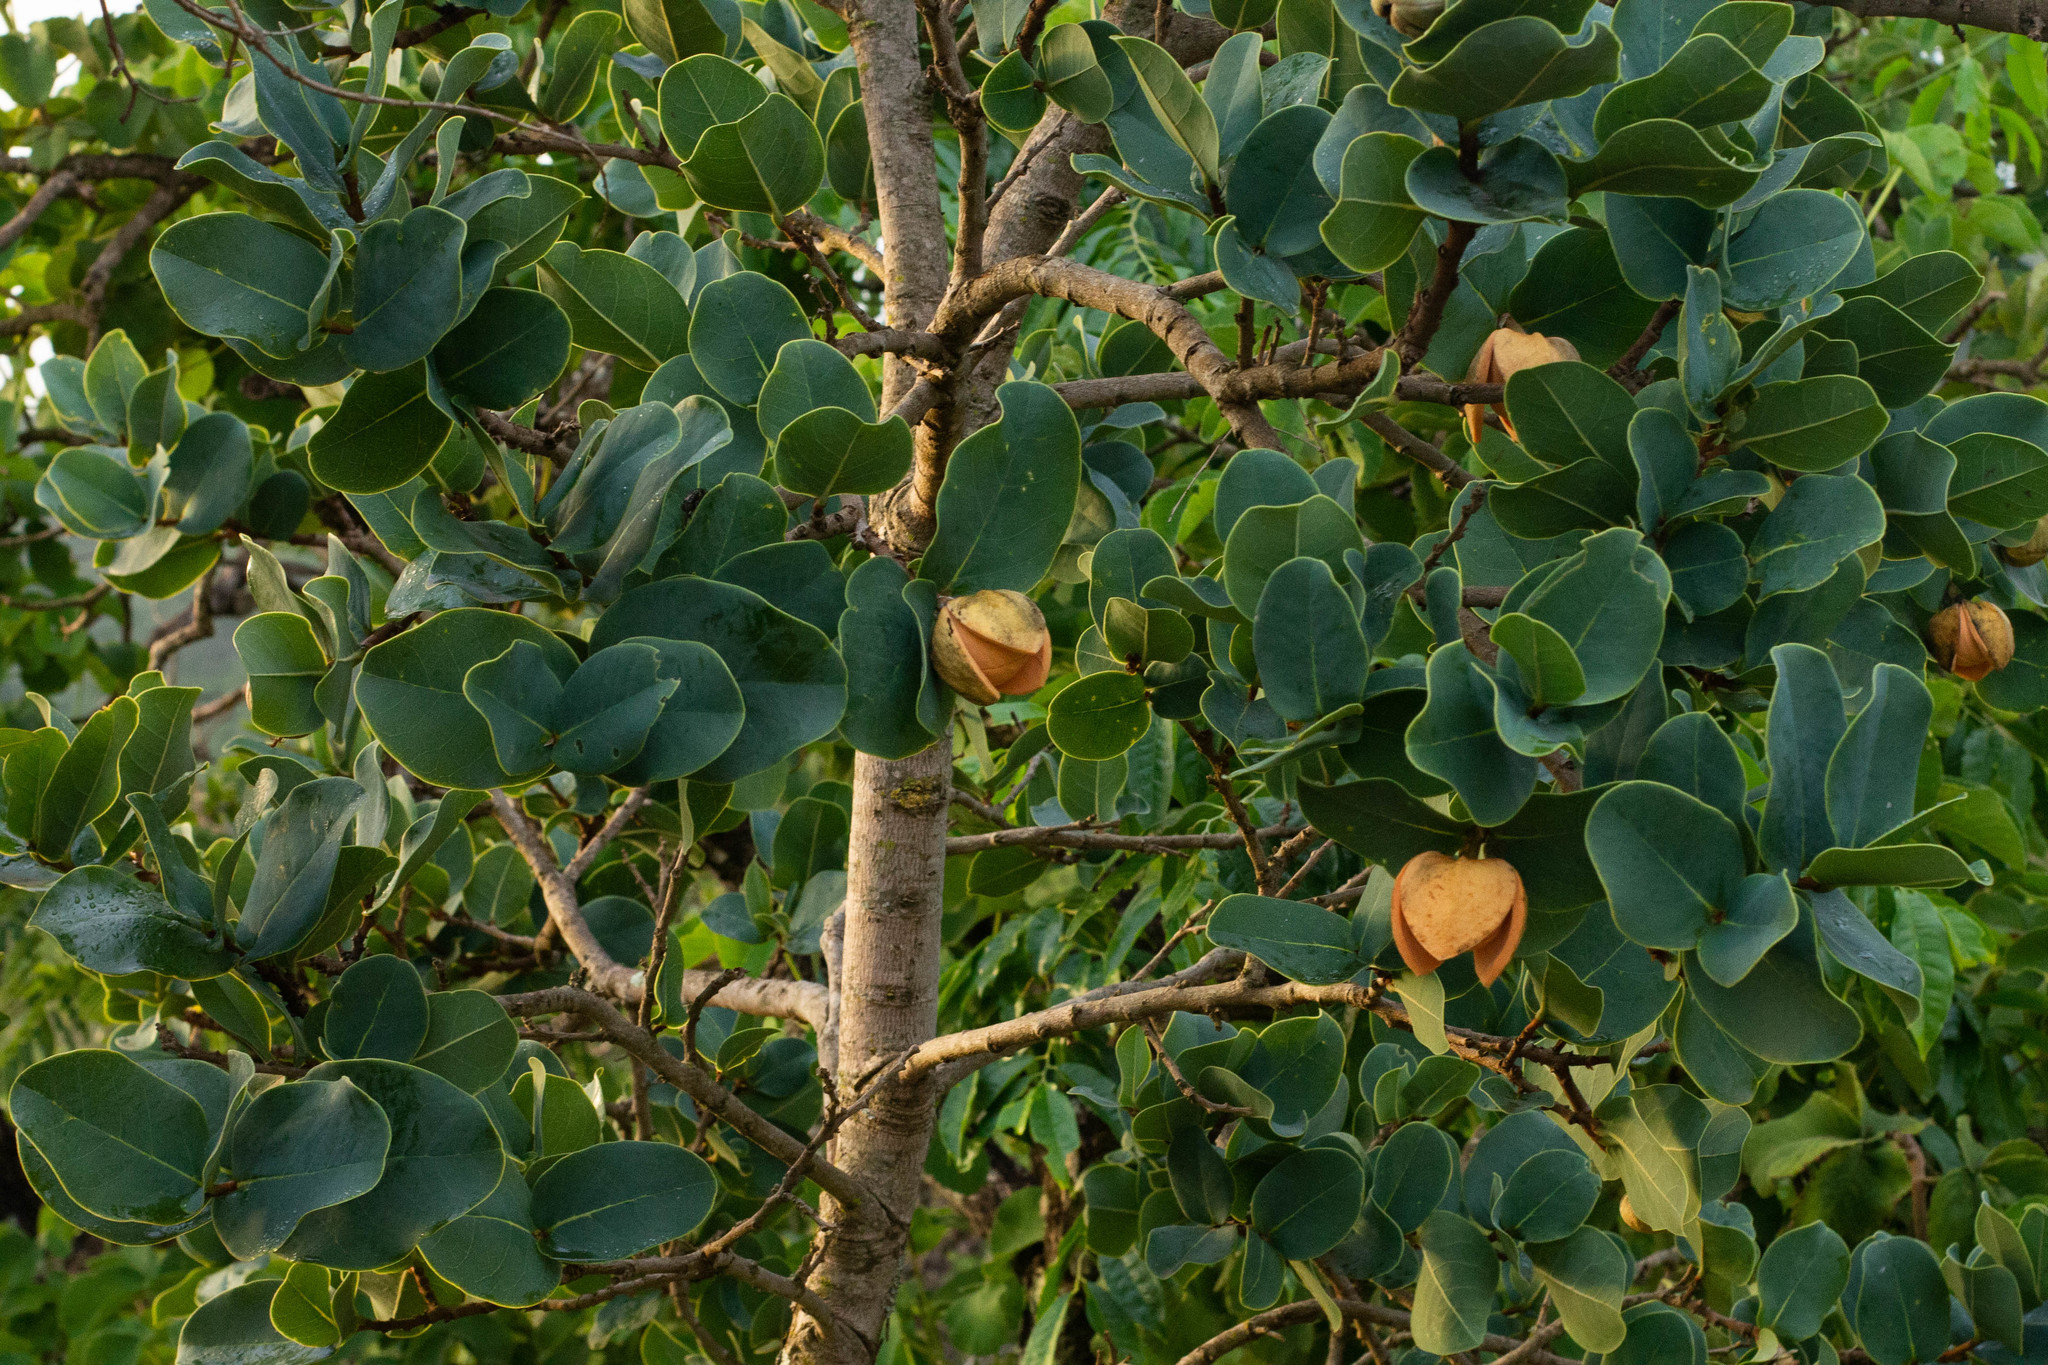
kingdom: Plantae
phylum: Tracheophyta
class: Magnoliopsida
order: Magnoliales
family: Annonaceae
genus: Annona
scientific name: Annona coriacea
